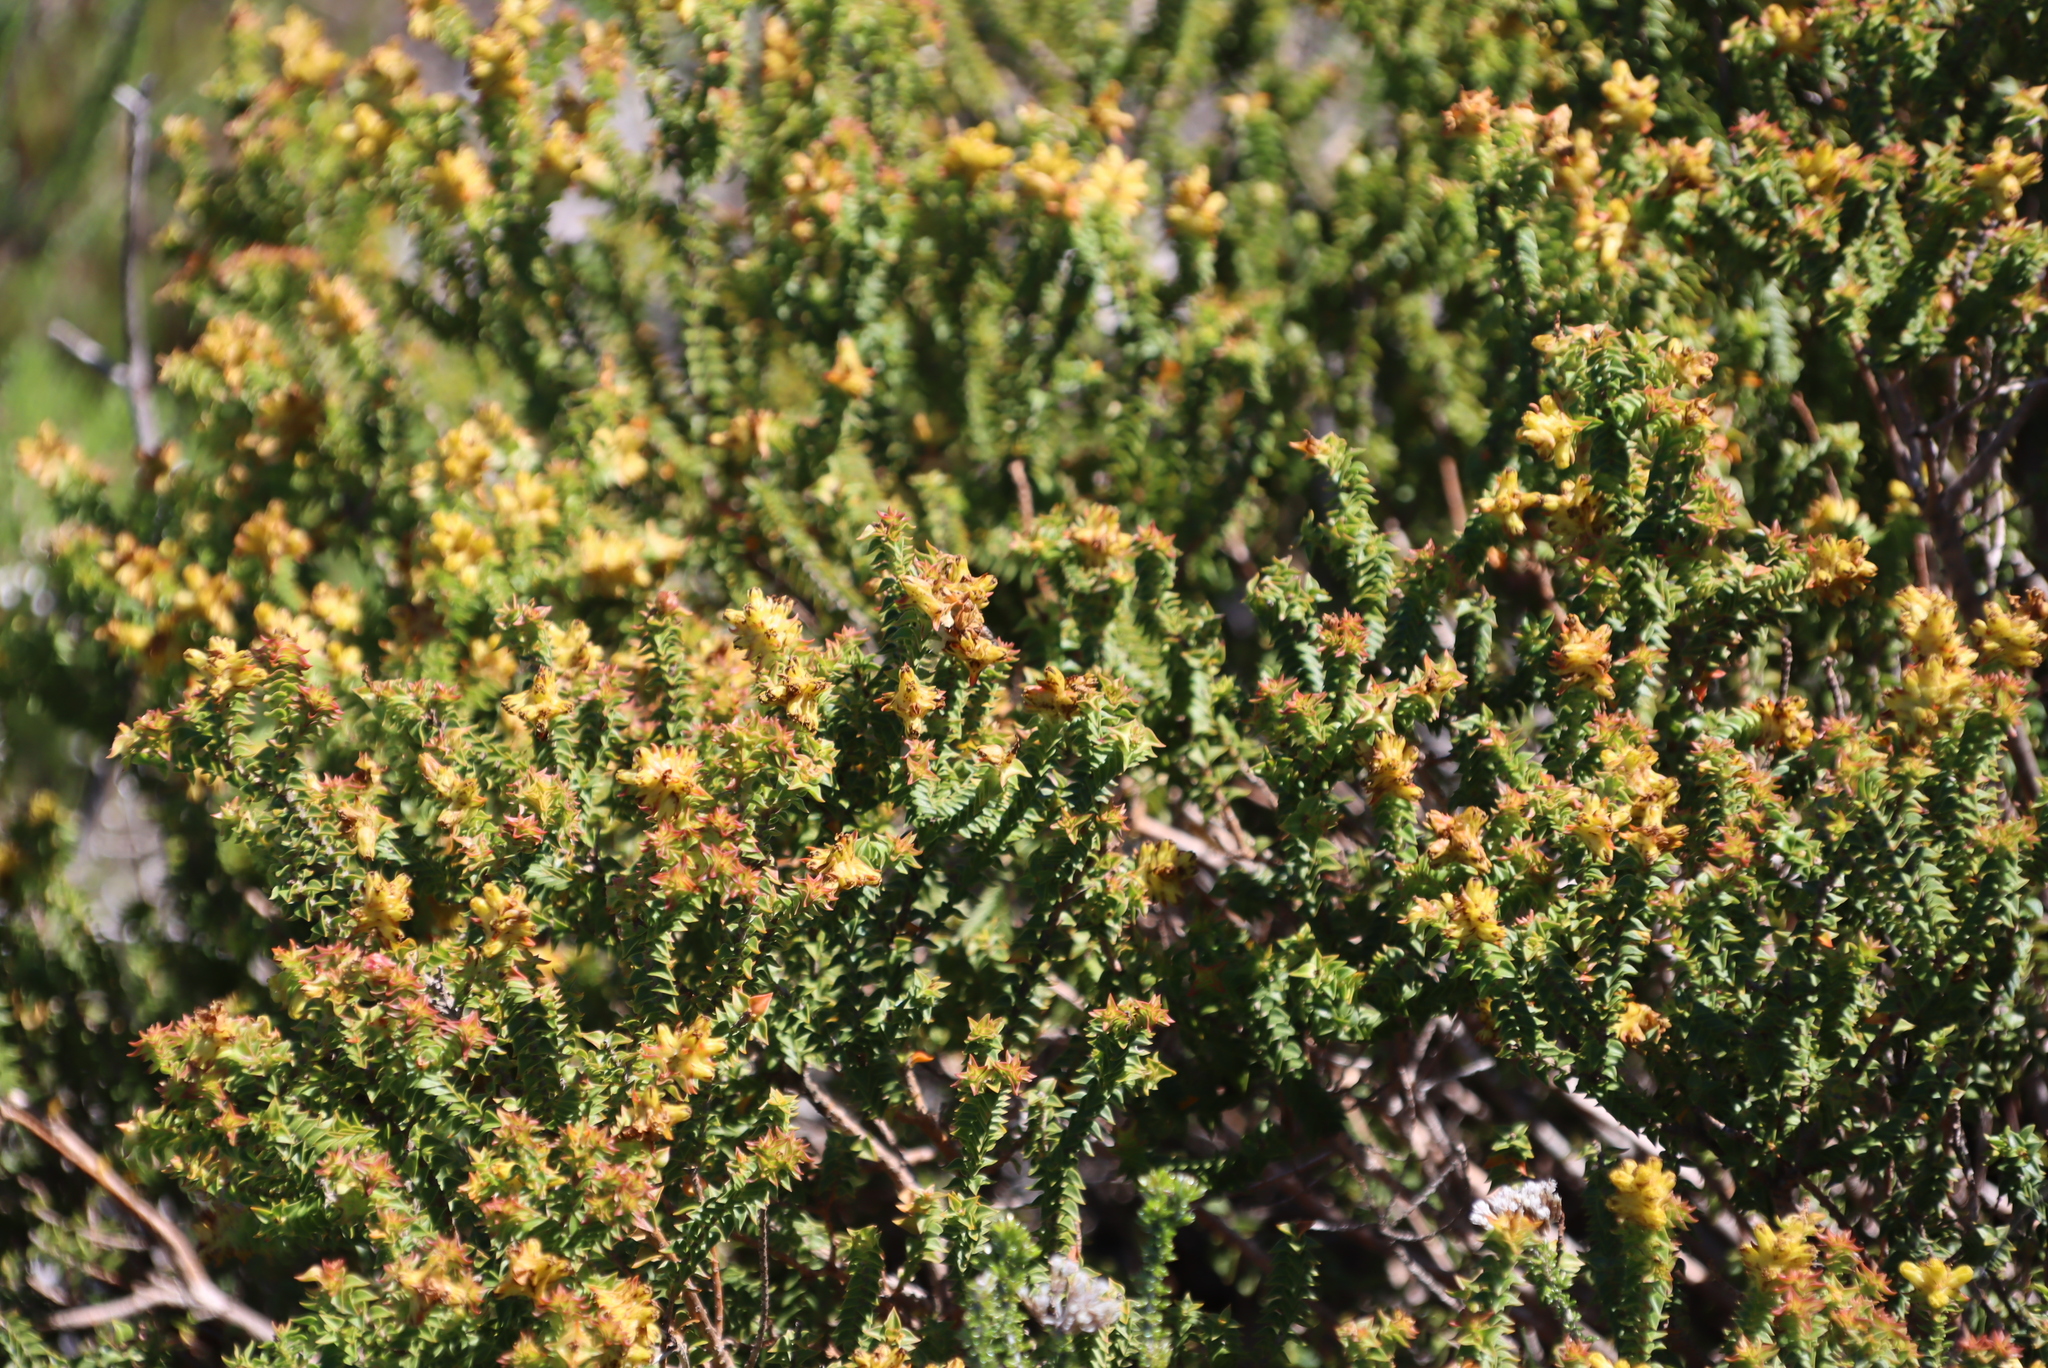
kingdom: Plantae
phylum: Tracheophyta
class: Magnoliopsida
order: Myrtales
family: Penaeaceae
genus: Penaea
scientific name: Penaea mucronata
